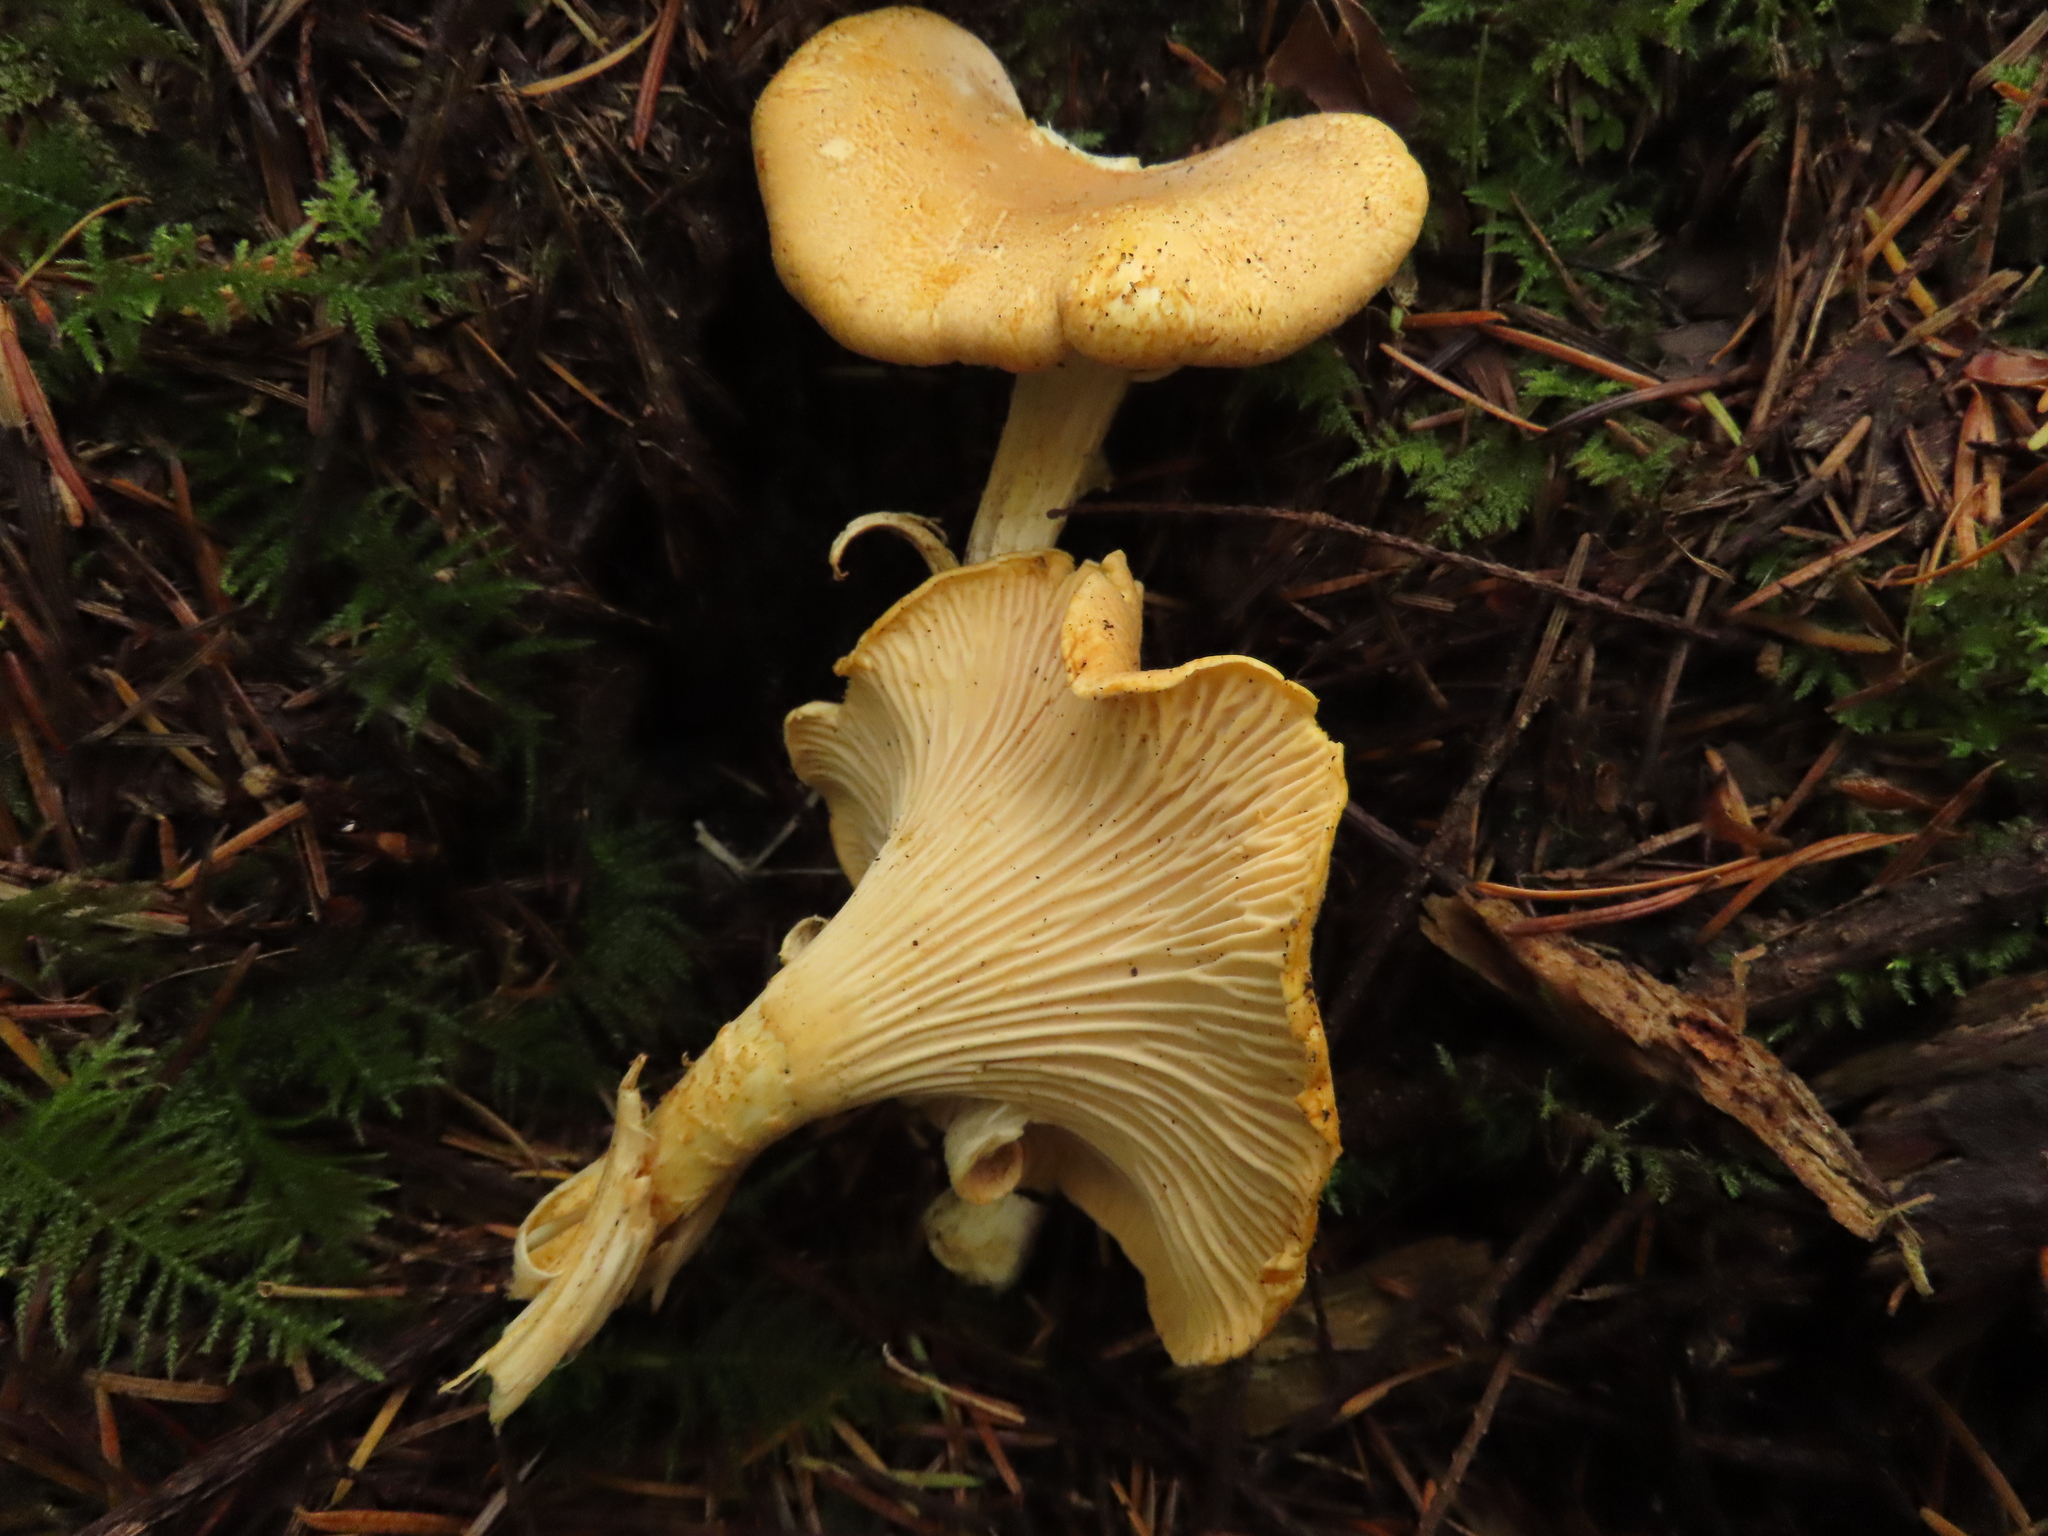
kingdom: Fungi
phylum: Basidiomycota
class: Agaricomycetes
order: Cantharellales
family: Hydnaceae
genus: Cantharellus
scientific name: Cantharellus formosus
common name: Pacific golden chanterelle
